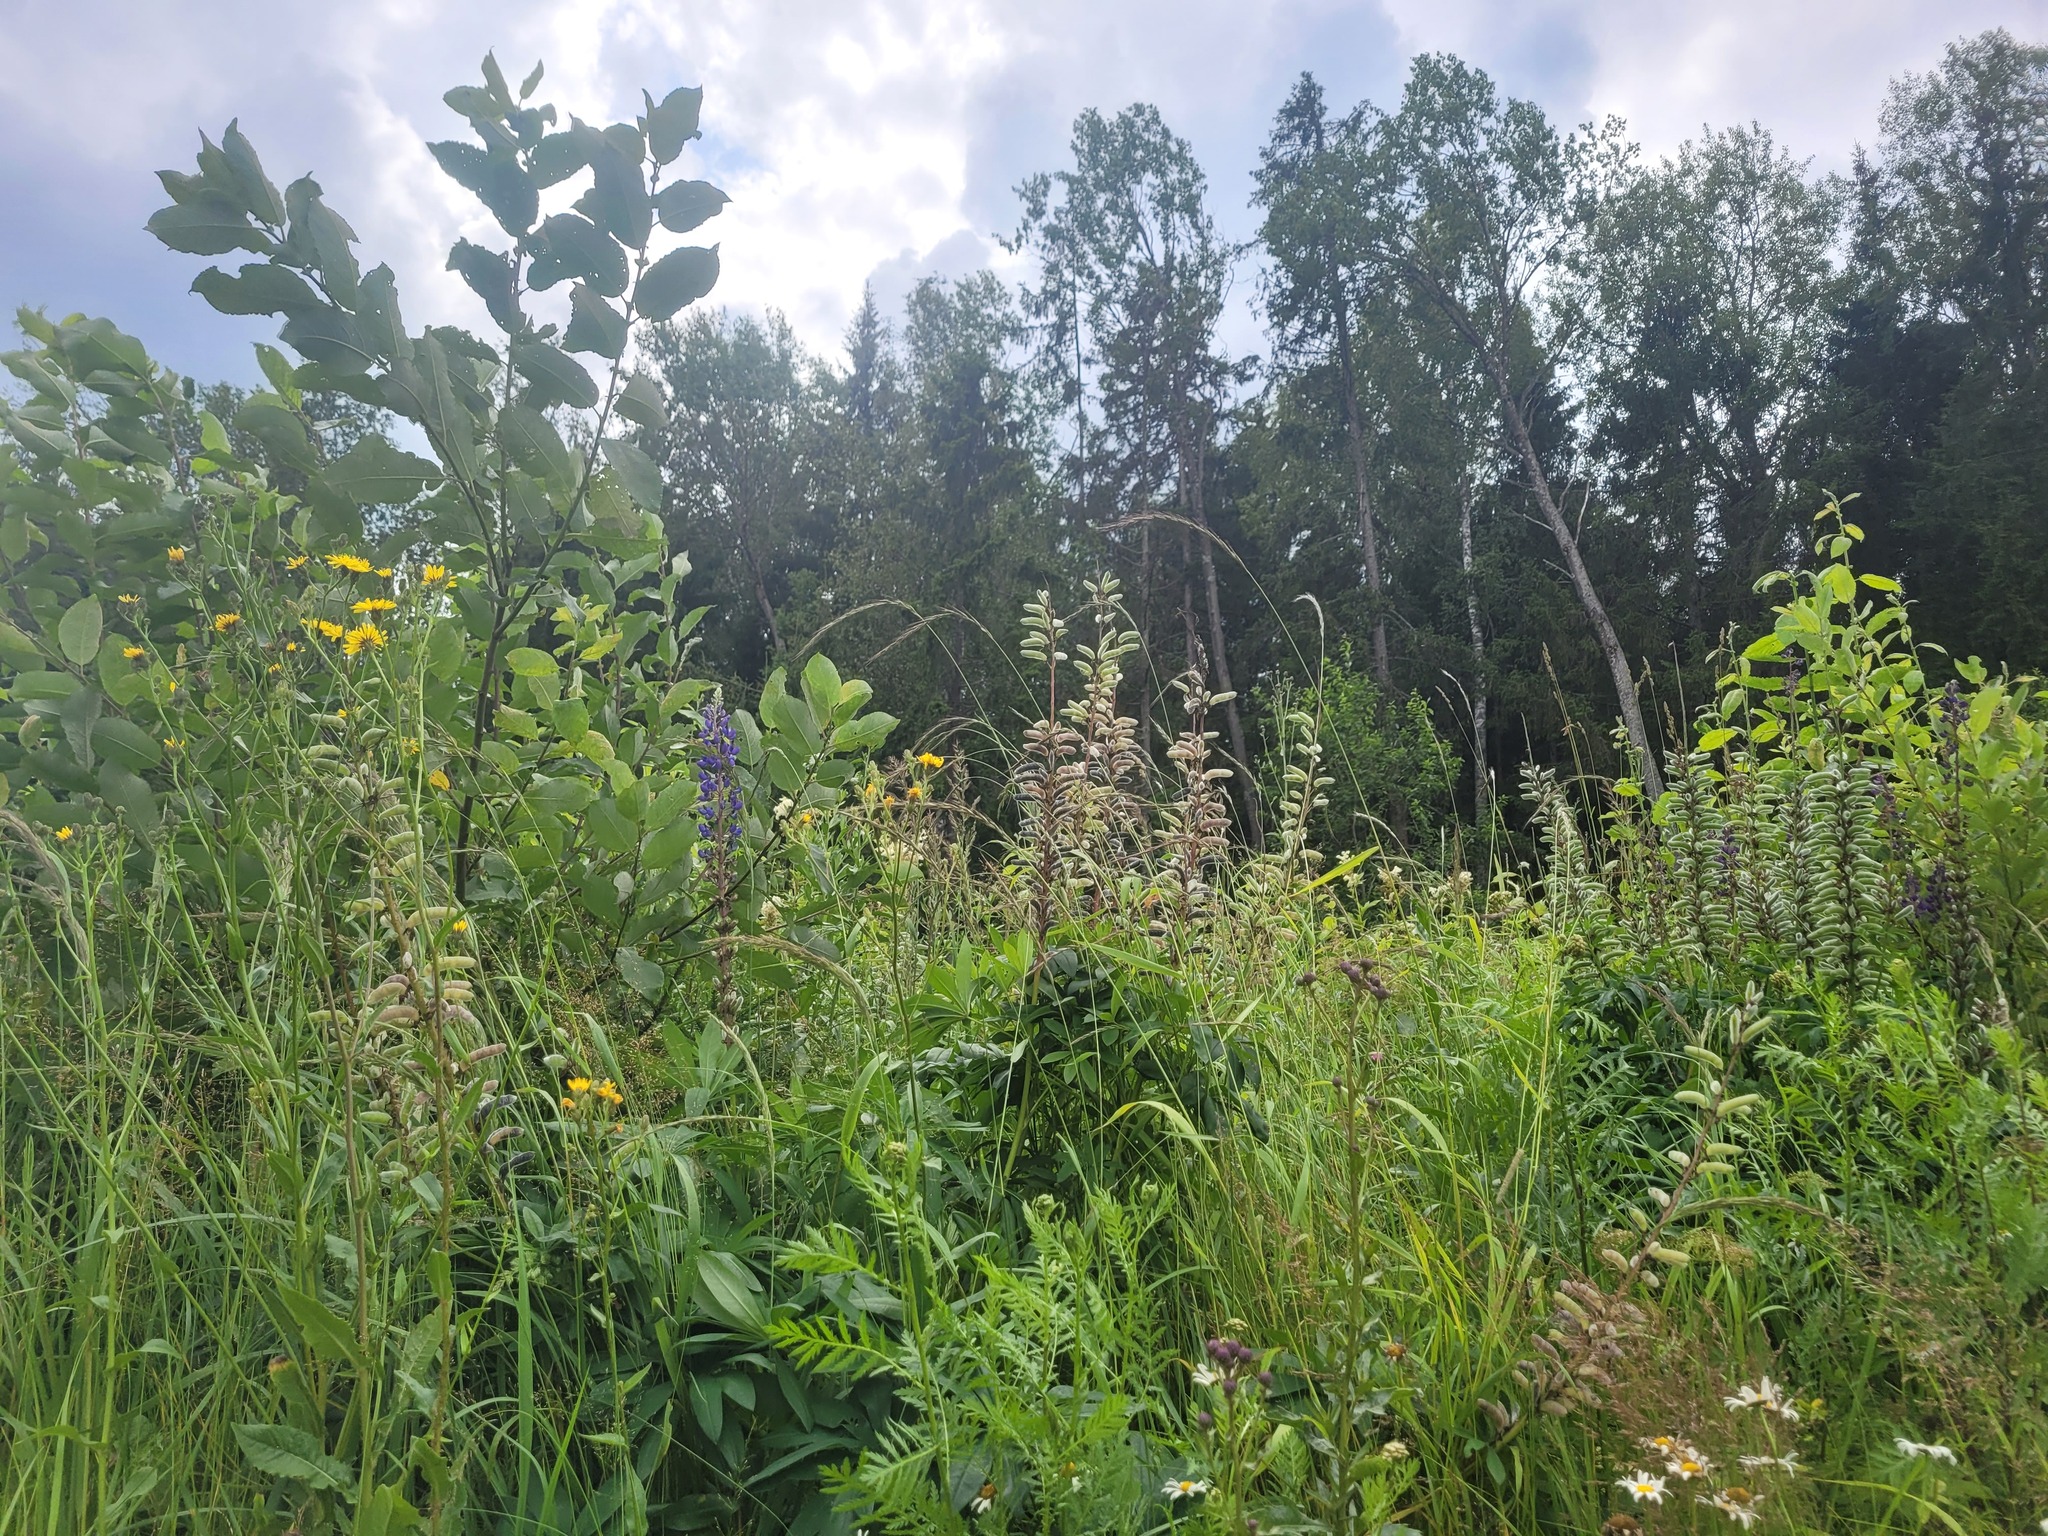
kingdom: Plantae
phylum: Tracheophyta
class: Magnoliopsida
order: Fabales
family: Fabaceae
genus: Lupinus
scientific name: Lupinus polyphyllus
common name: Garden lupin
